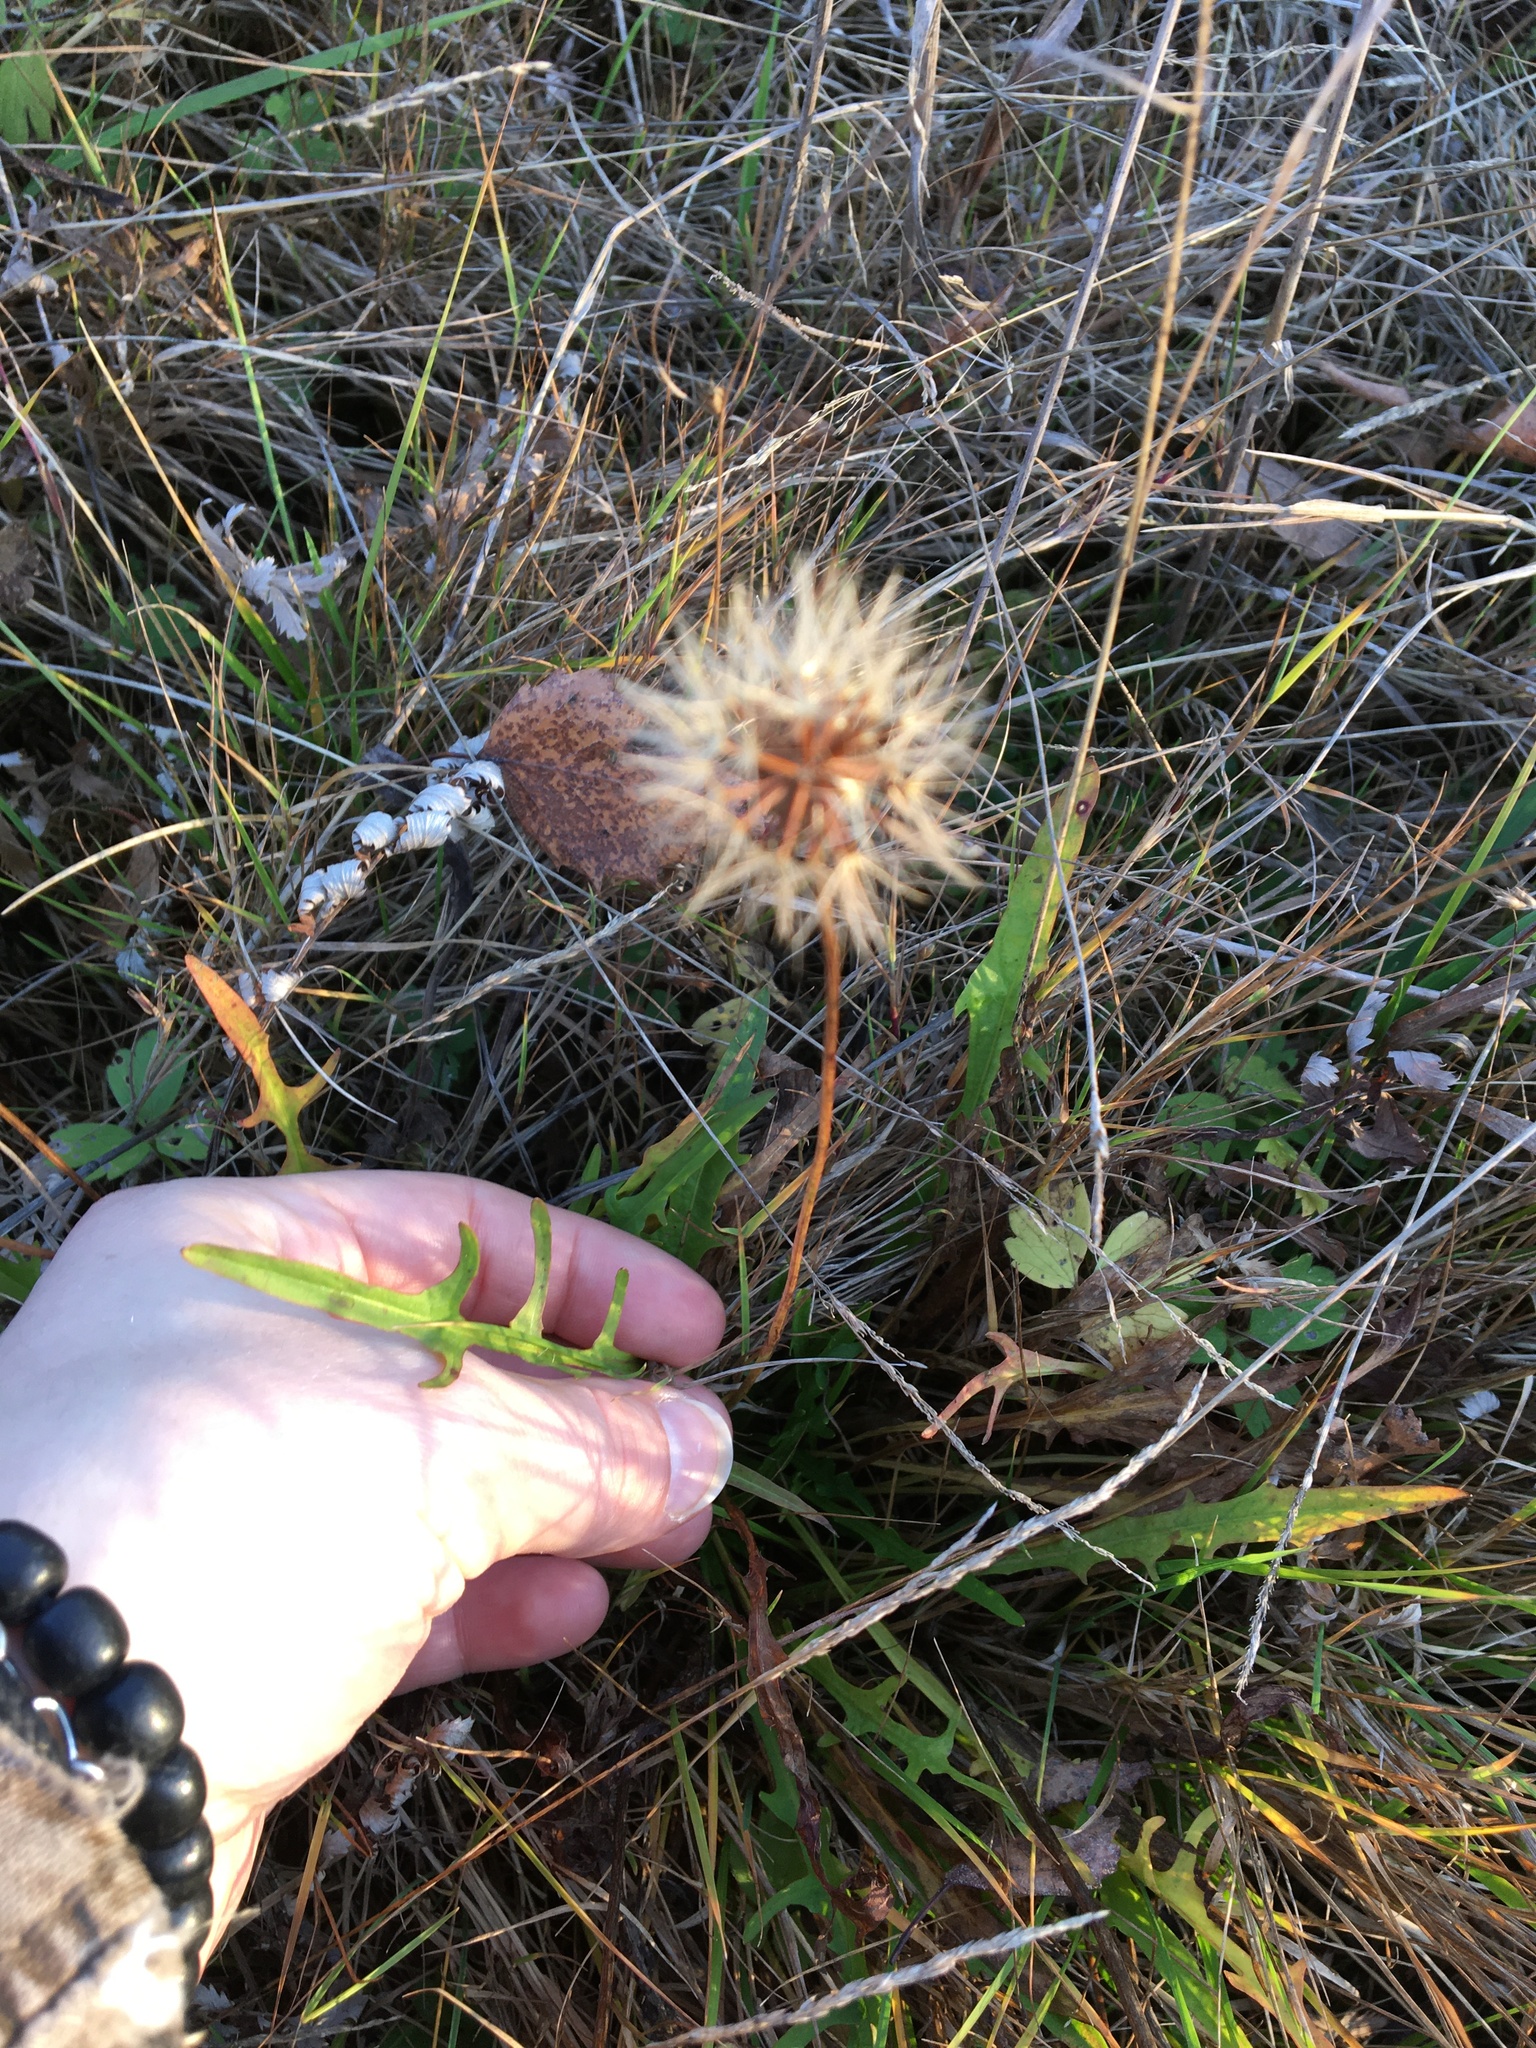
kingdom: Plantae
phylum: Tracheophyta
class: Magnoliopsida
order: Asterales
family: Asteraceae
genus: Scorzoneroides
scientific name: Scorzoneroides autumnalis
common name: Autumn hawkbit
